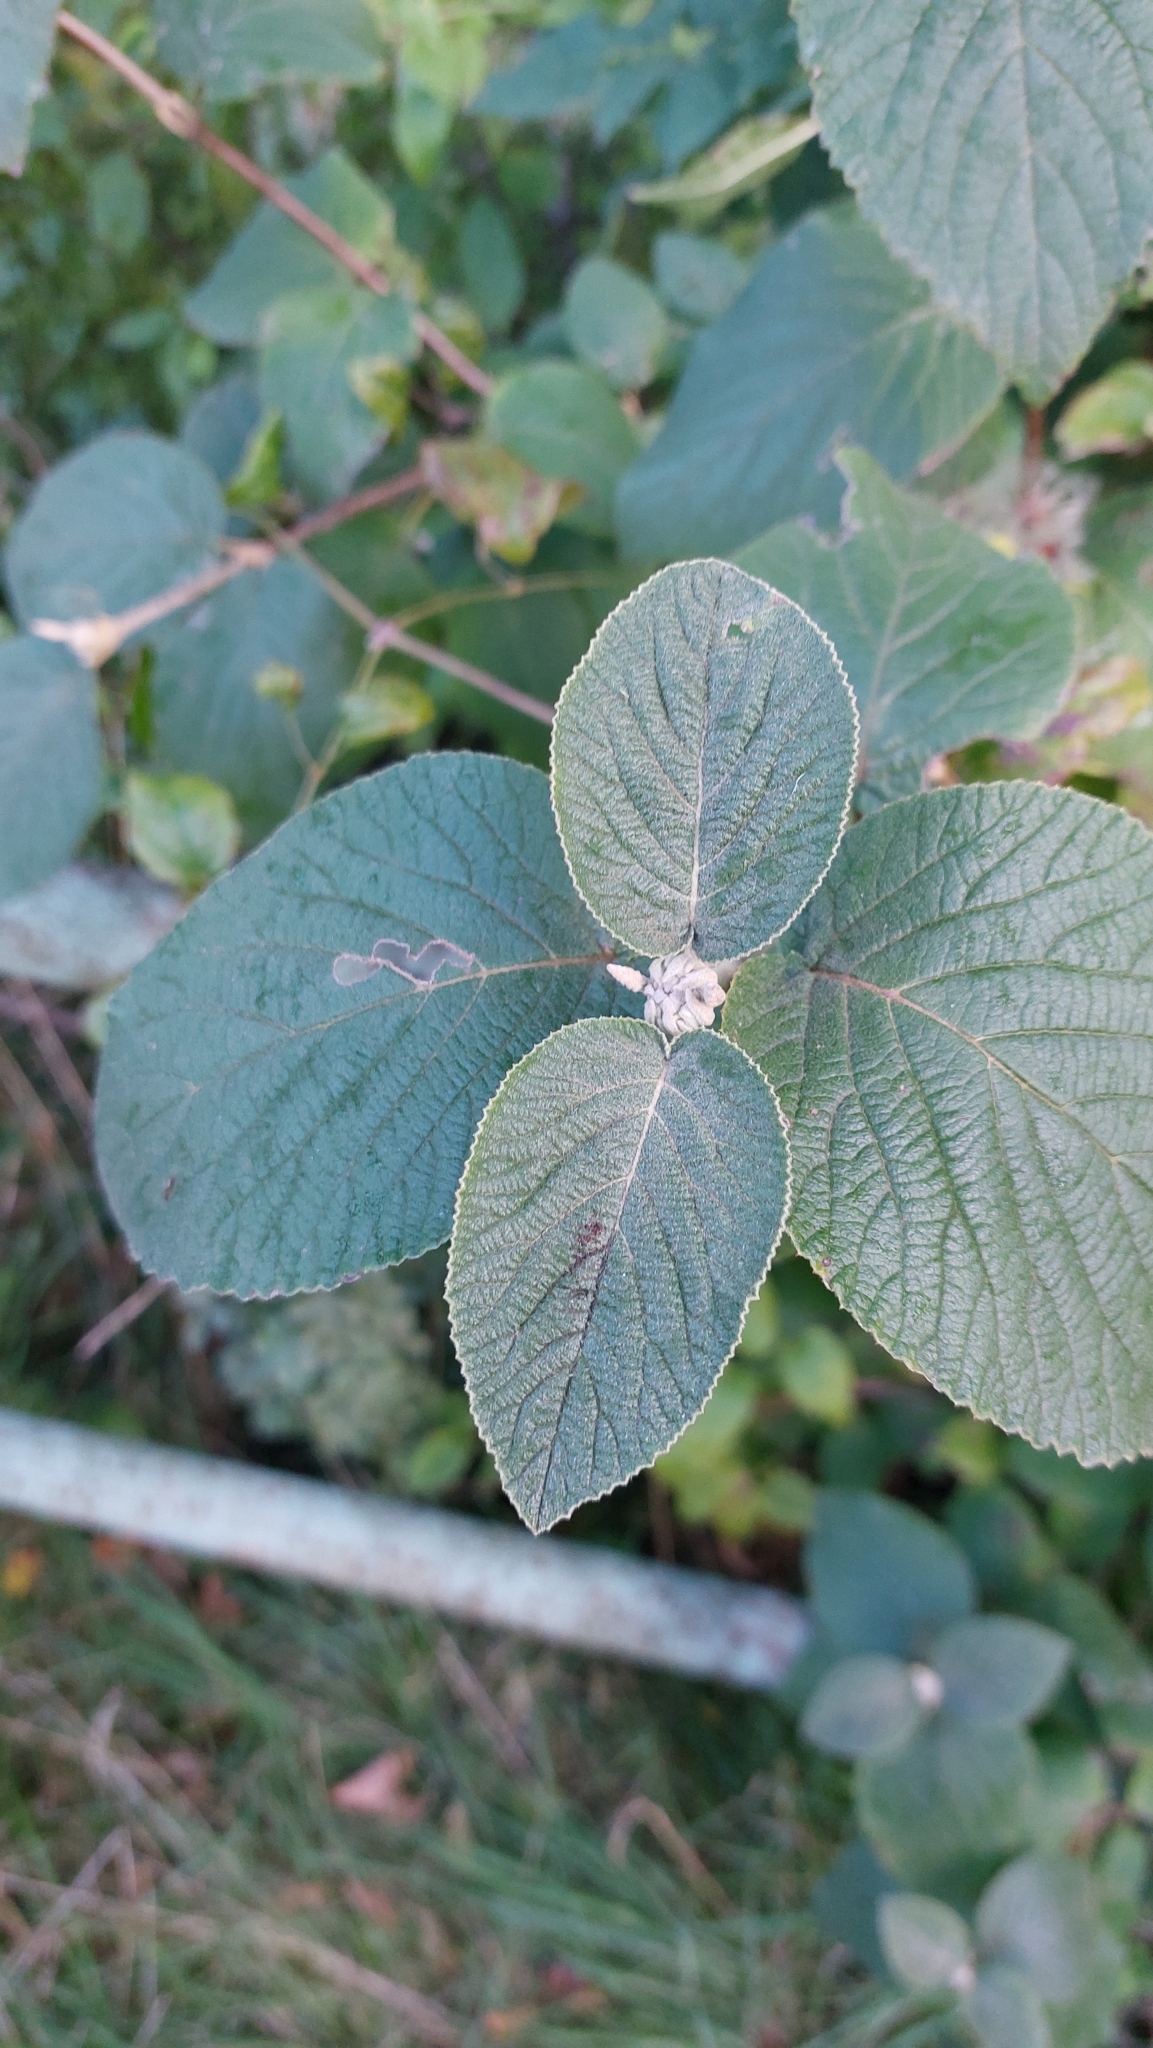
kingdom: Plantae
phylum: Tracheophyta
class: Magnoliopsida
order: Dipsacales
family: Viburnaceae
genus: Viburnum
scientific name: Viburnum lantana
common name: Wayfaring tree
